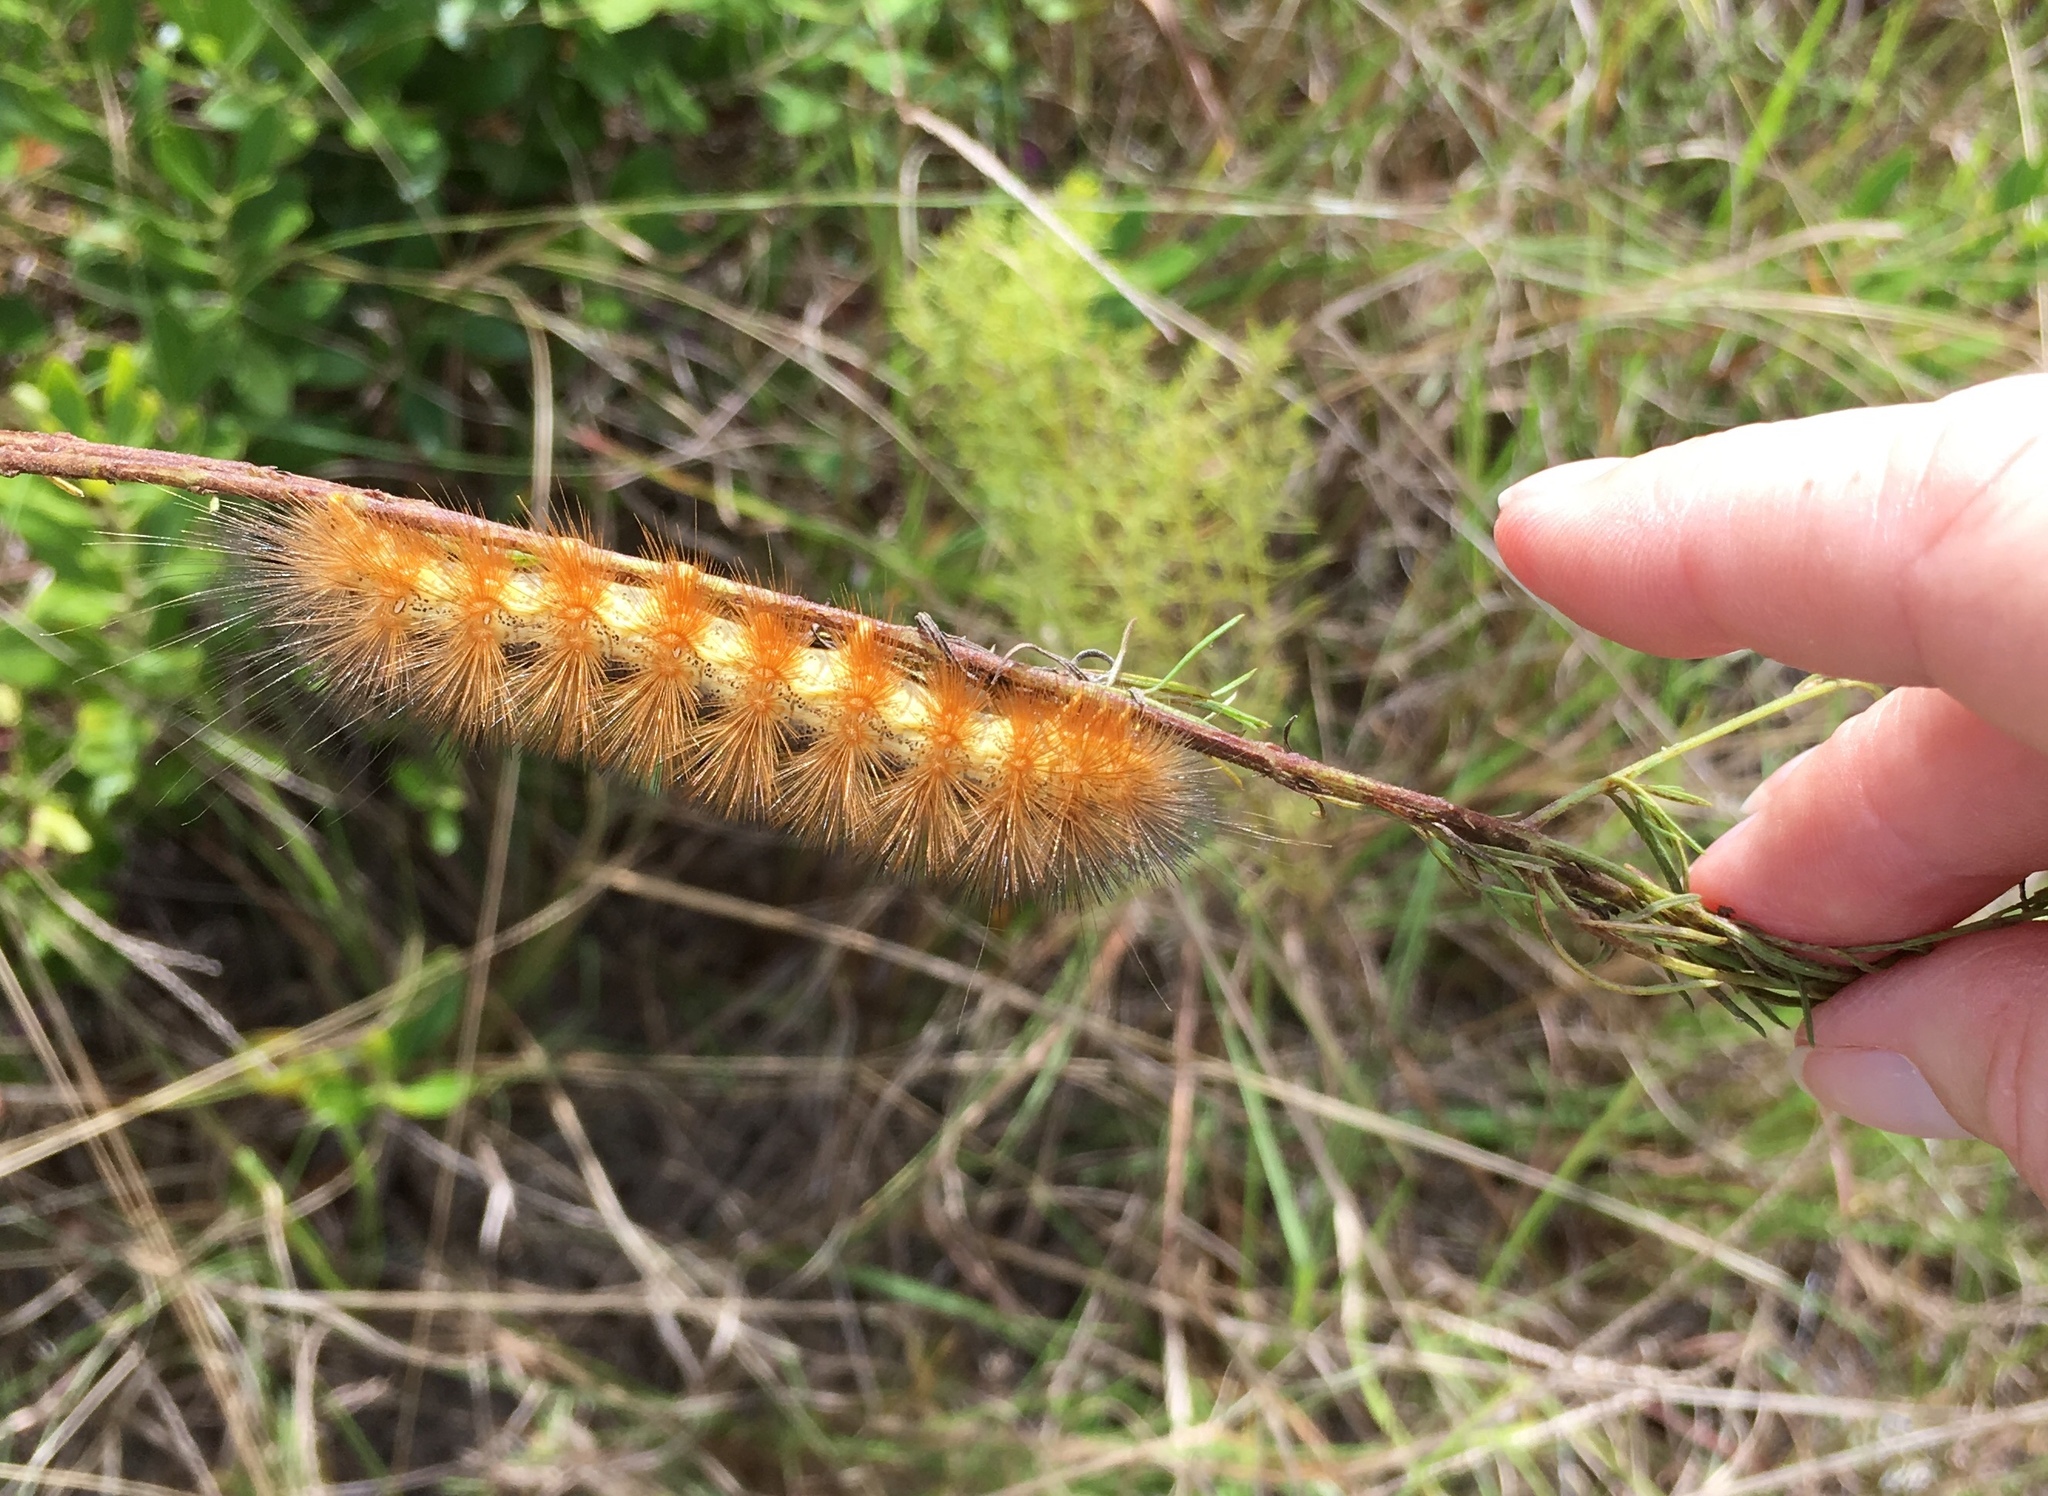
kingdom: Animalia
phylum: Arthropoda
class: Insecta
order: Lepidoptera
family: Erebidae
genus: Estigmene
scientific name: Estigmene acrea
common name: Salt marsh moth
